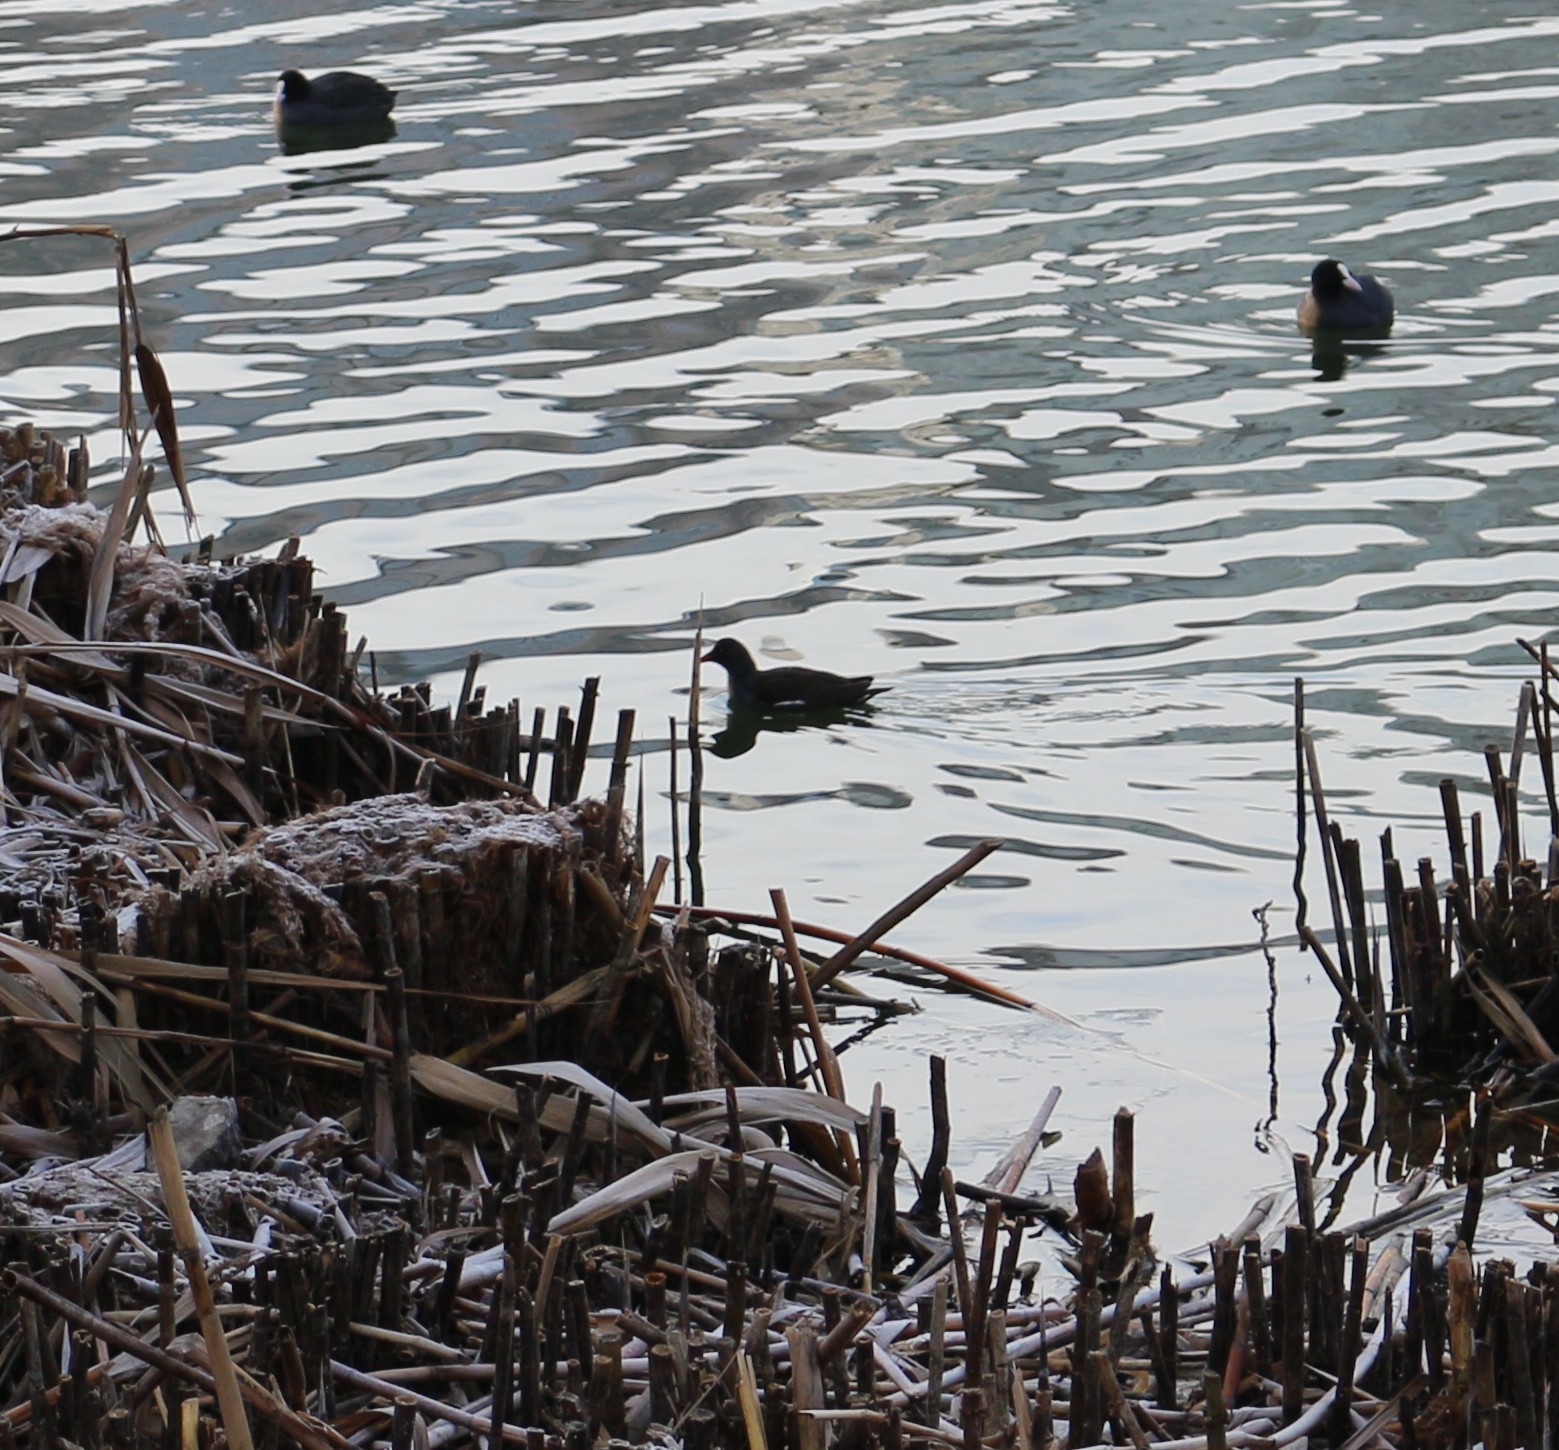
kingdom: Animalia
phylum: Chordata
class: Aves
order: Gruiformes
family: Rallidae
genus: Gallinula
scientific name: Gallinula chloropus
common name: Common moorhen
